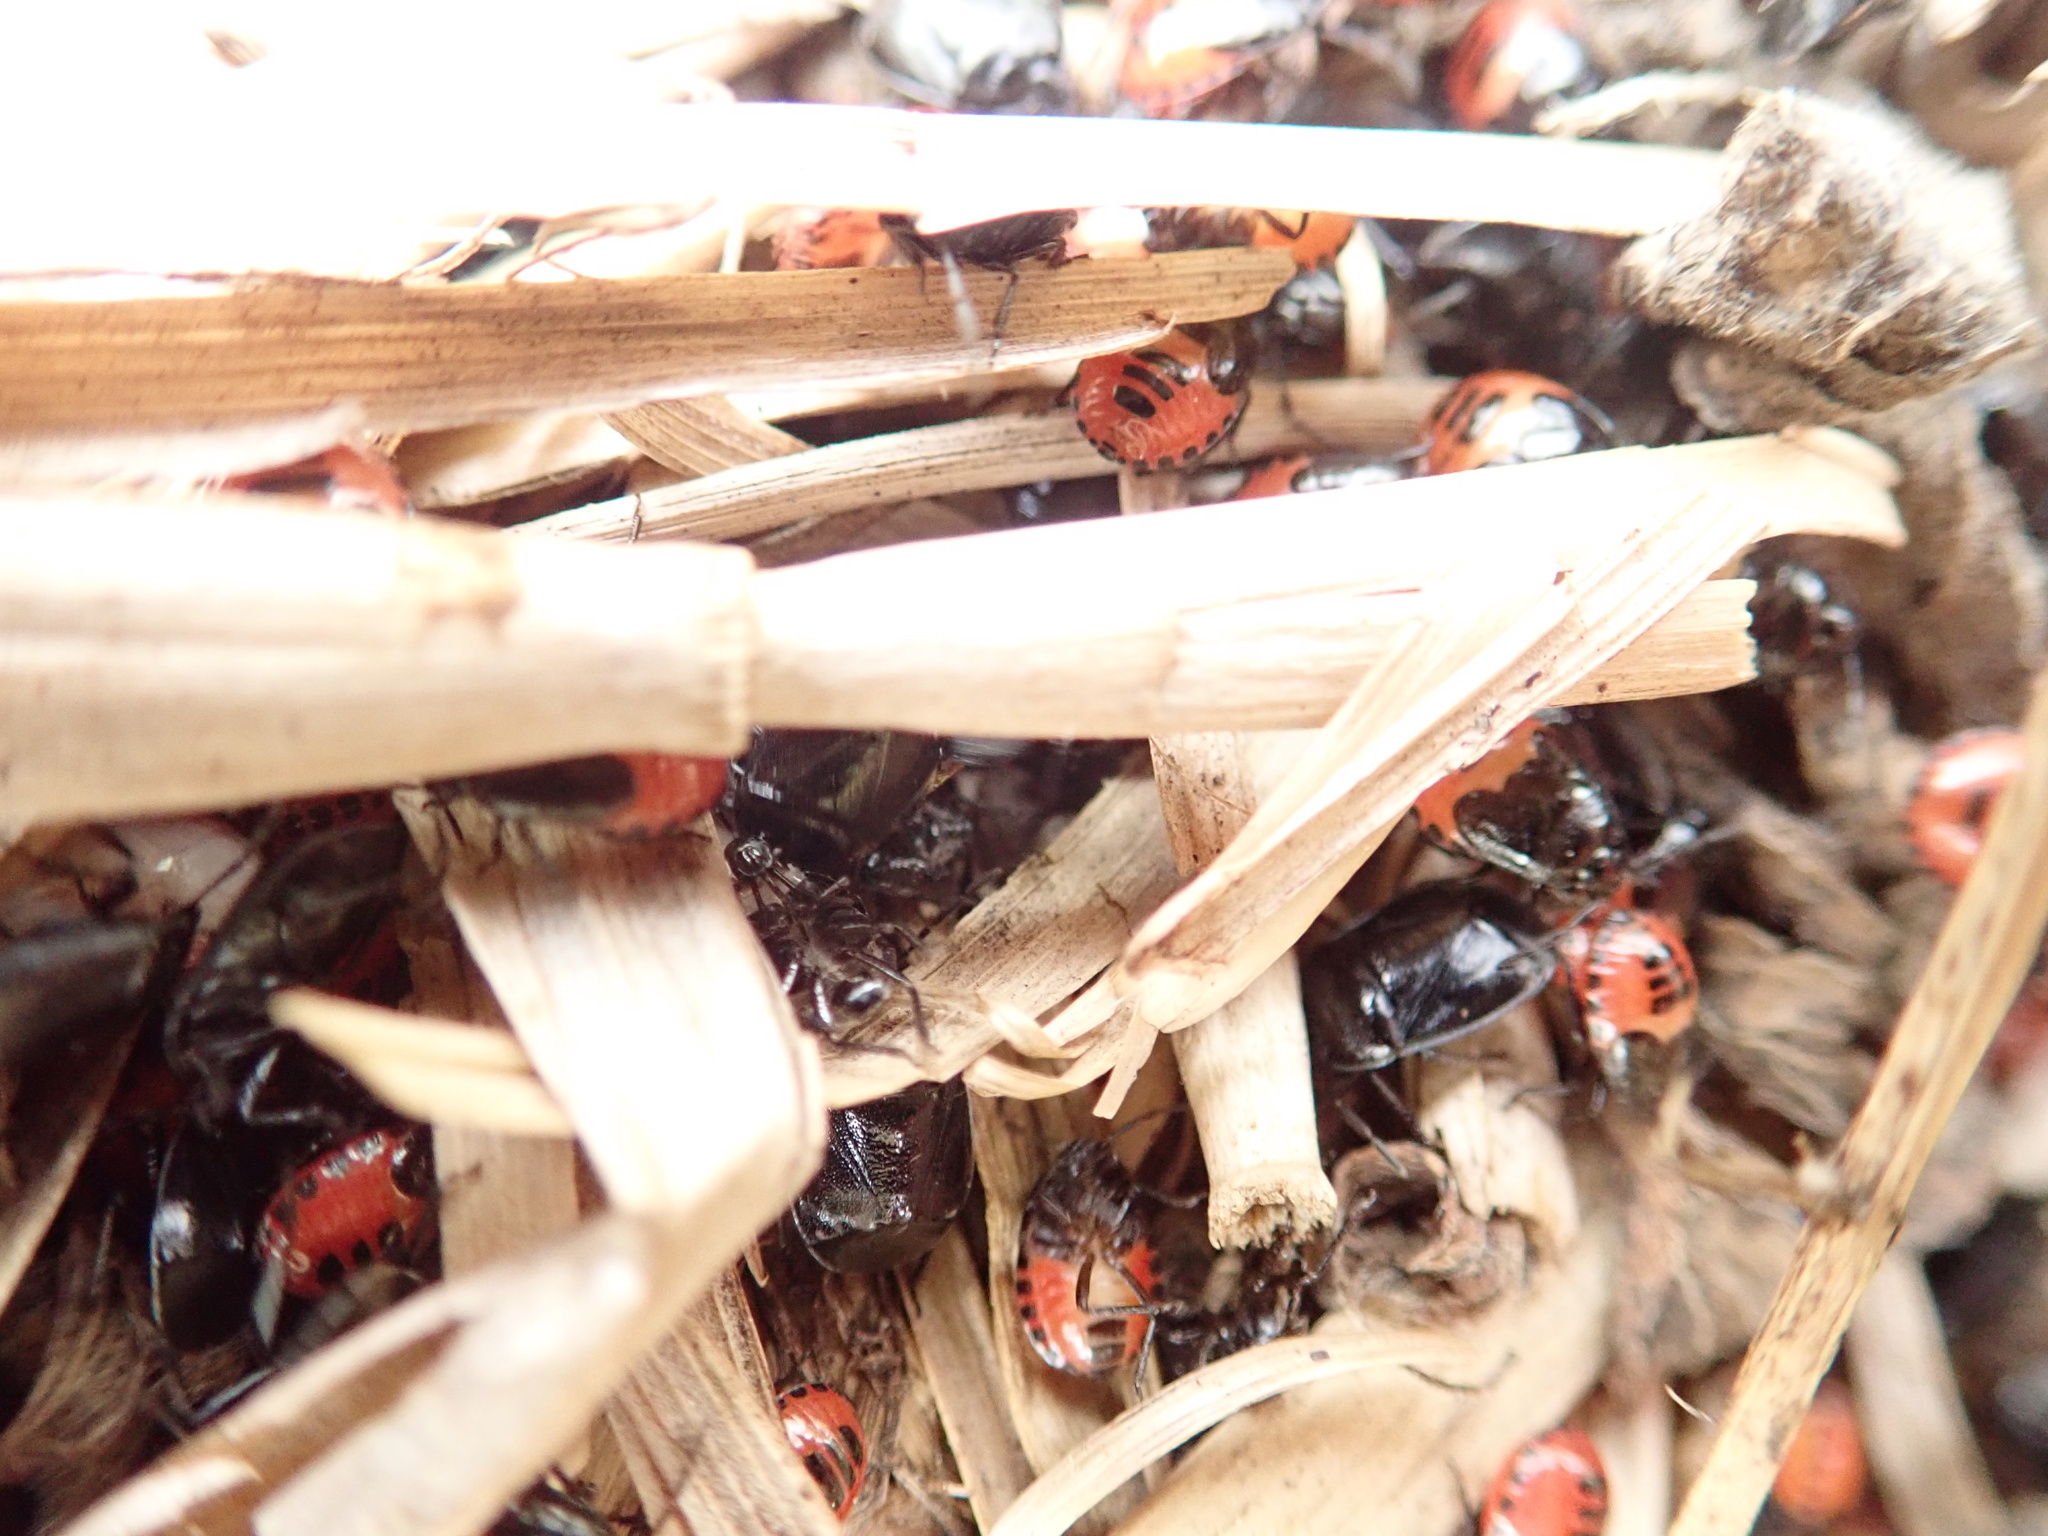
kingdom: Animalia
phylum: Arthropoda
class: Insecta
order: Hemiptera
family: Cydnidae
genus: Sehirus
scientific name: Sehirus cinctus
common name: White-margined burrower bug
